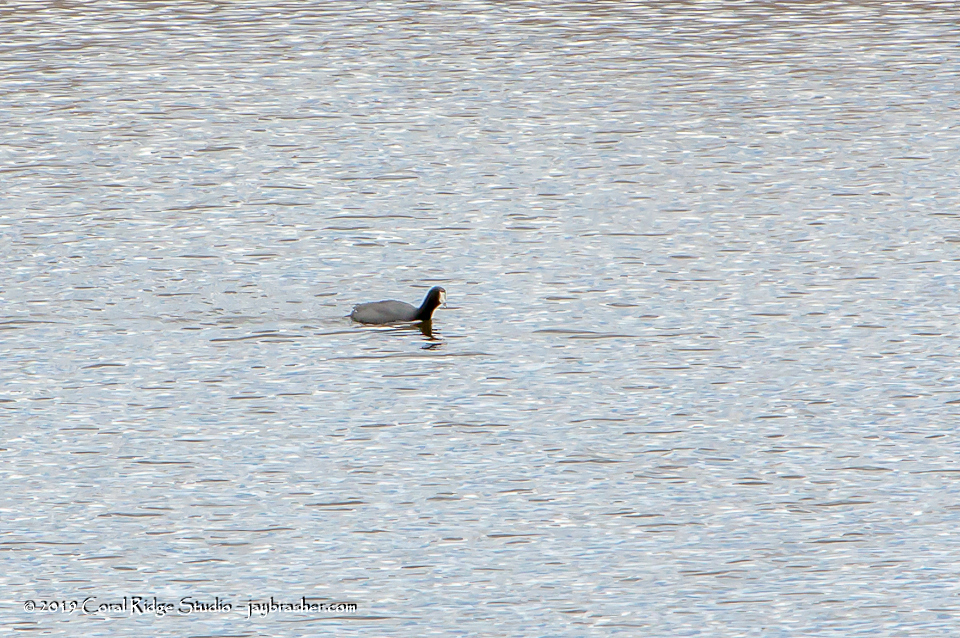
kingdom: Animalia
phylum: Chordata
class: Aves
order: Gruiformes
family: Rallidae
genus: Fulica
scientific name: Fulica americana
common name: American coot
